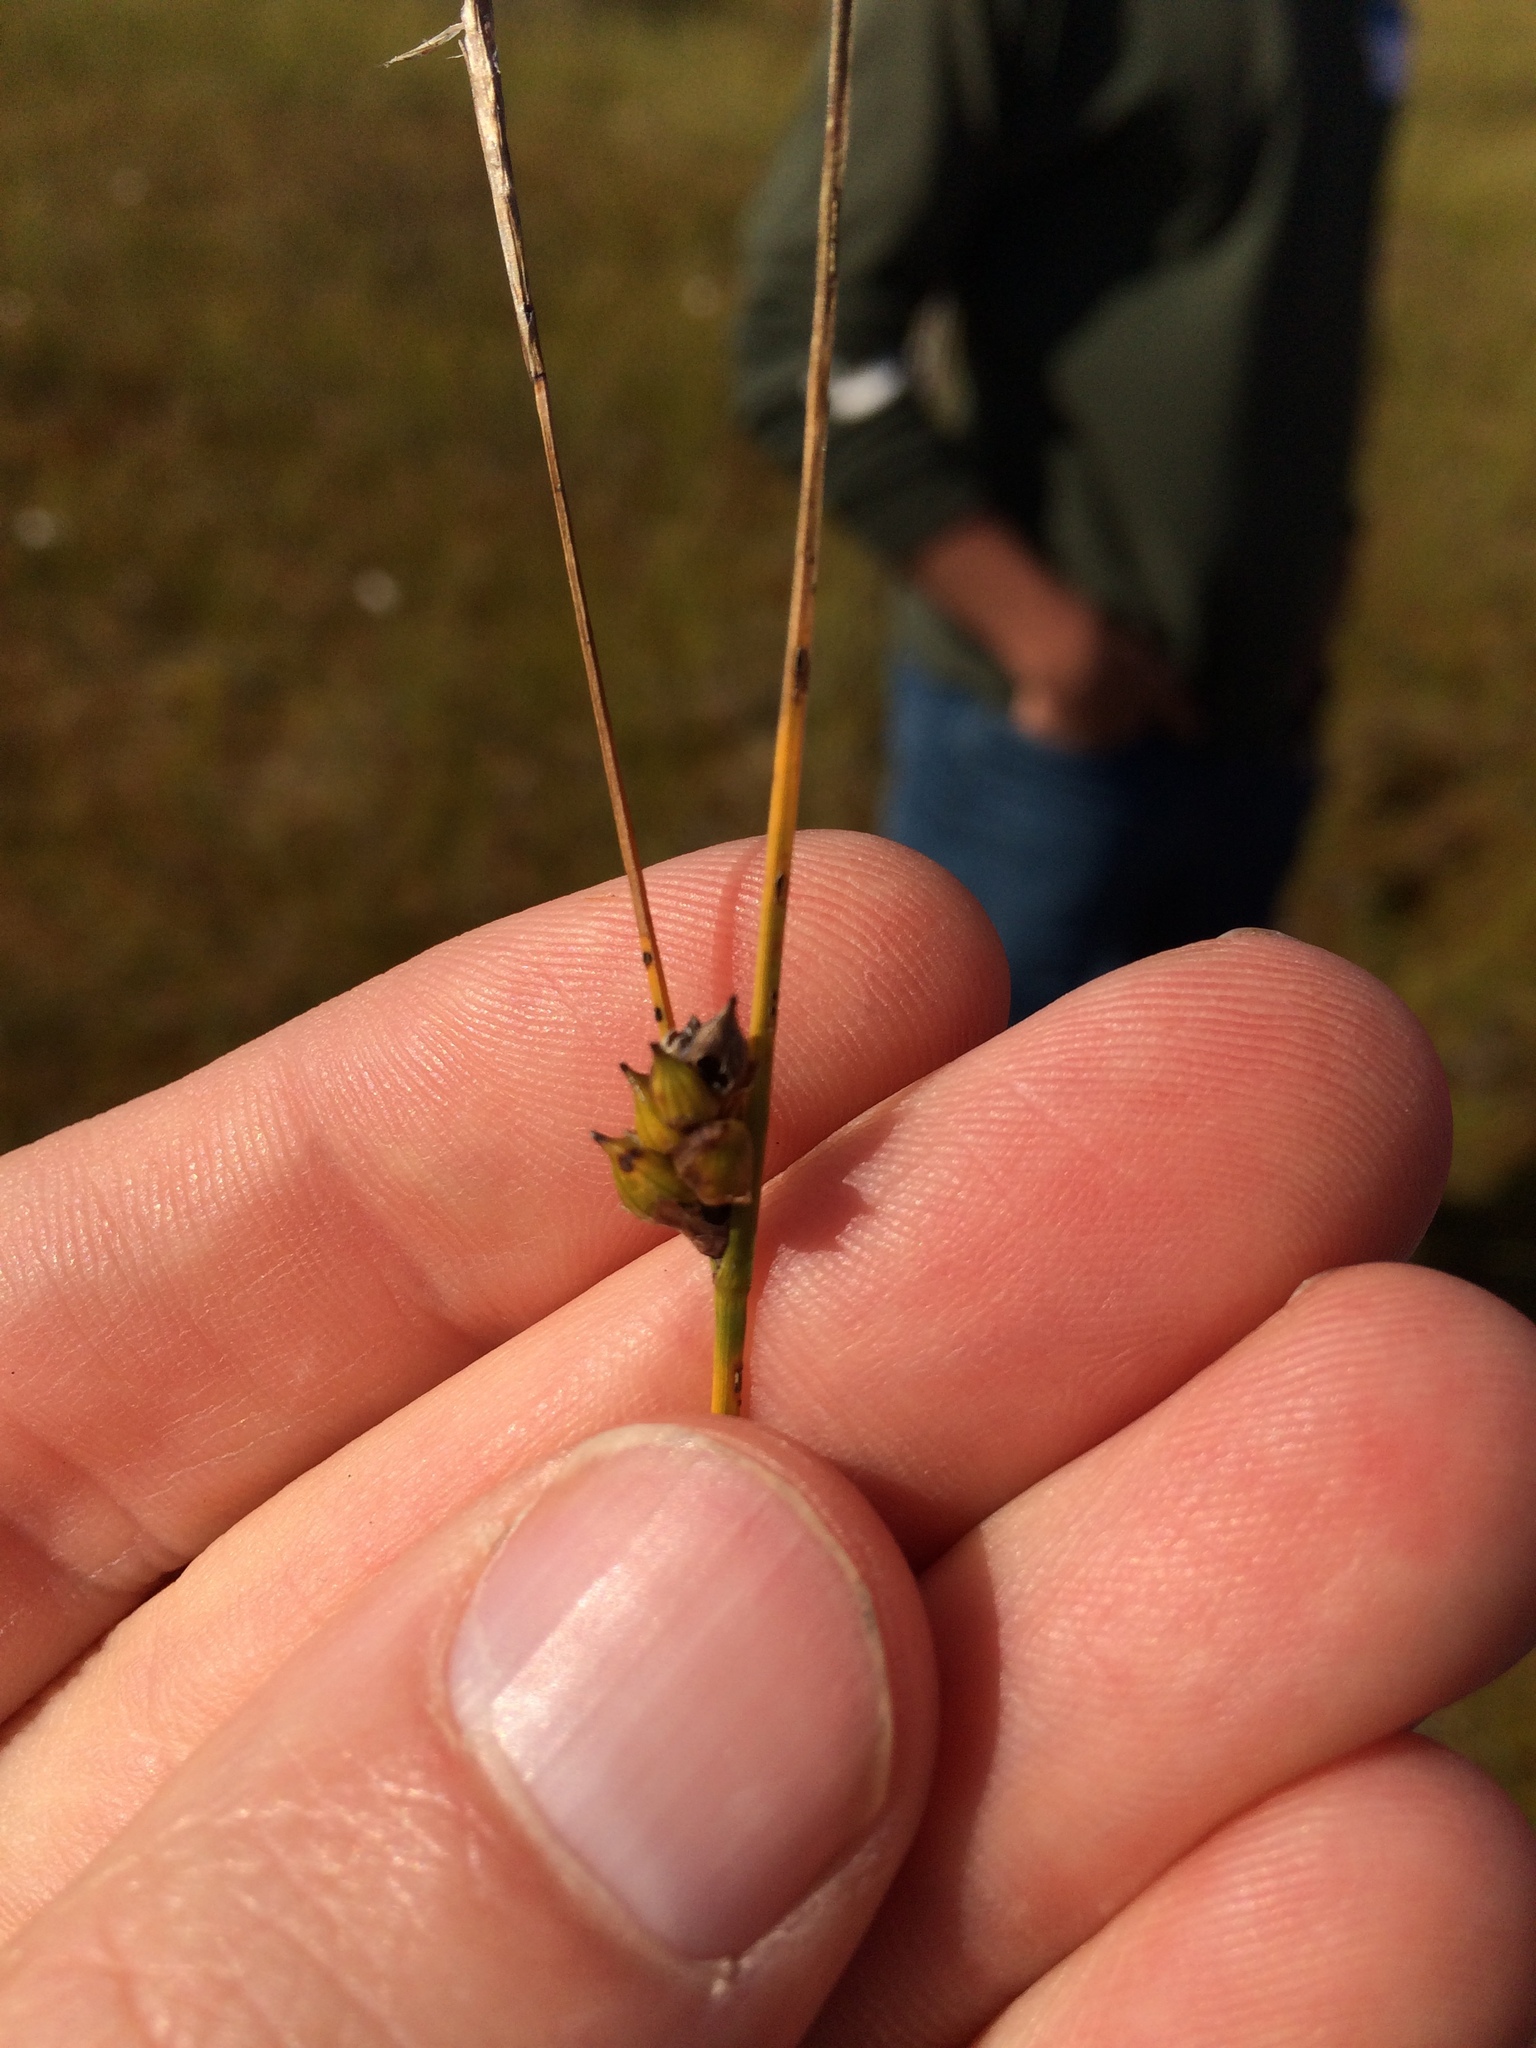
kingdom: Plantae
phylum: Tracheophyta
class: Liliopsida
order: Poales
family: Cyperaceae
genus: Carex
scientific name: Carex oligosperma
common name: Few-seed sedge
